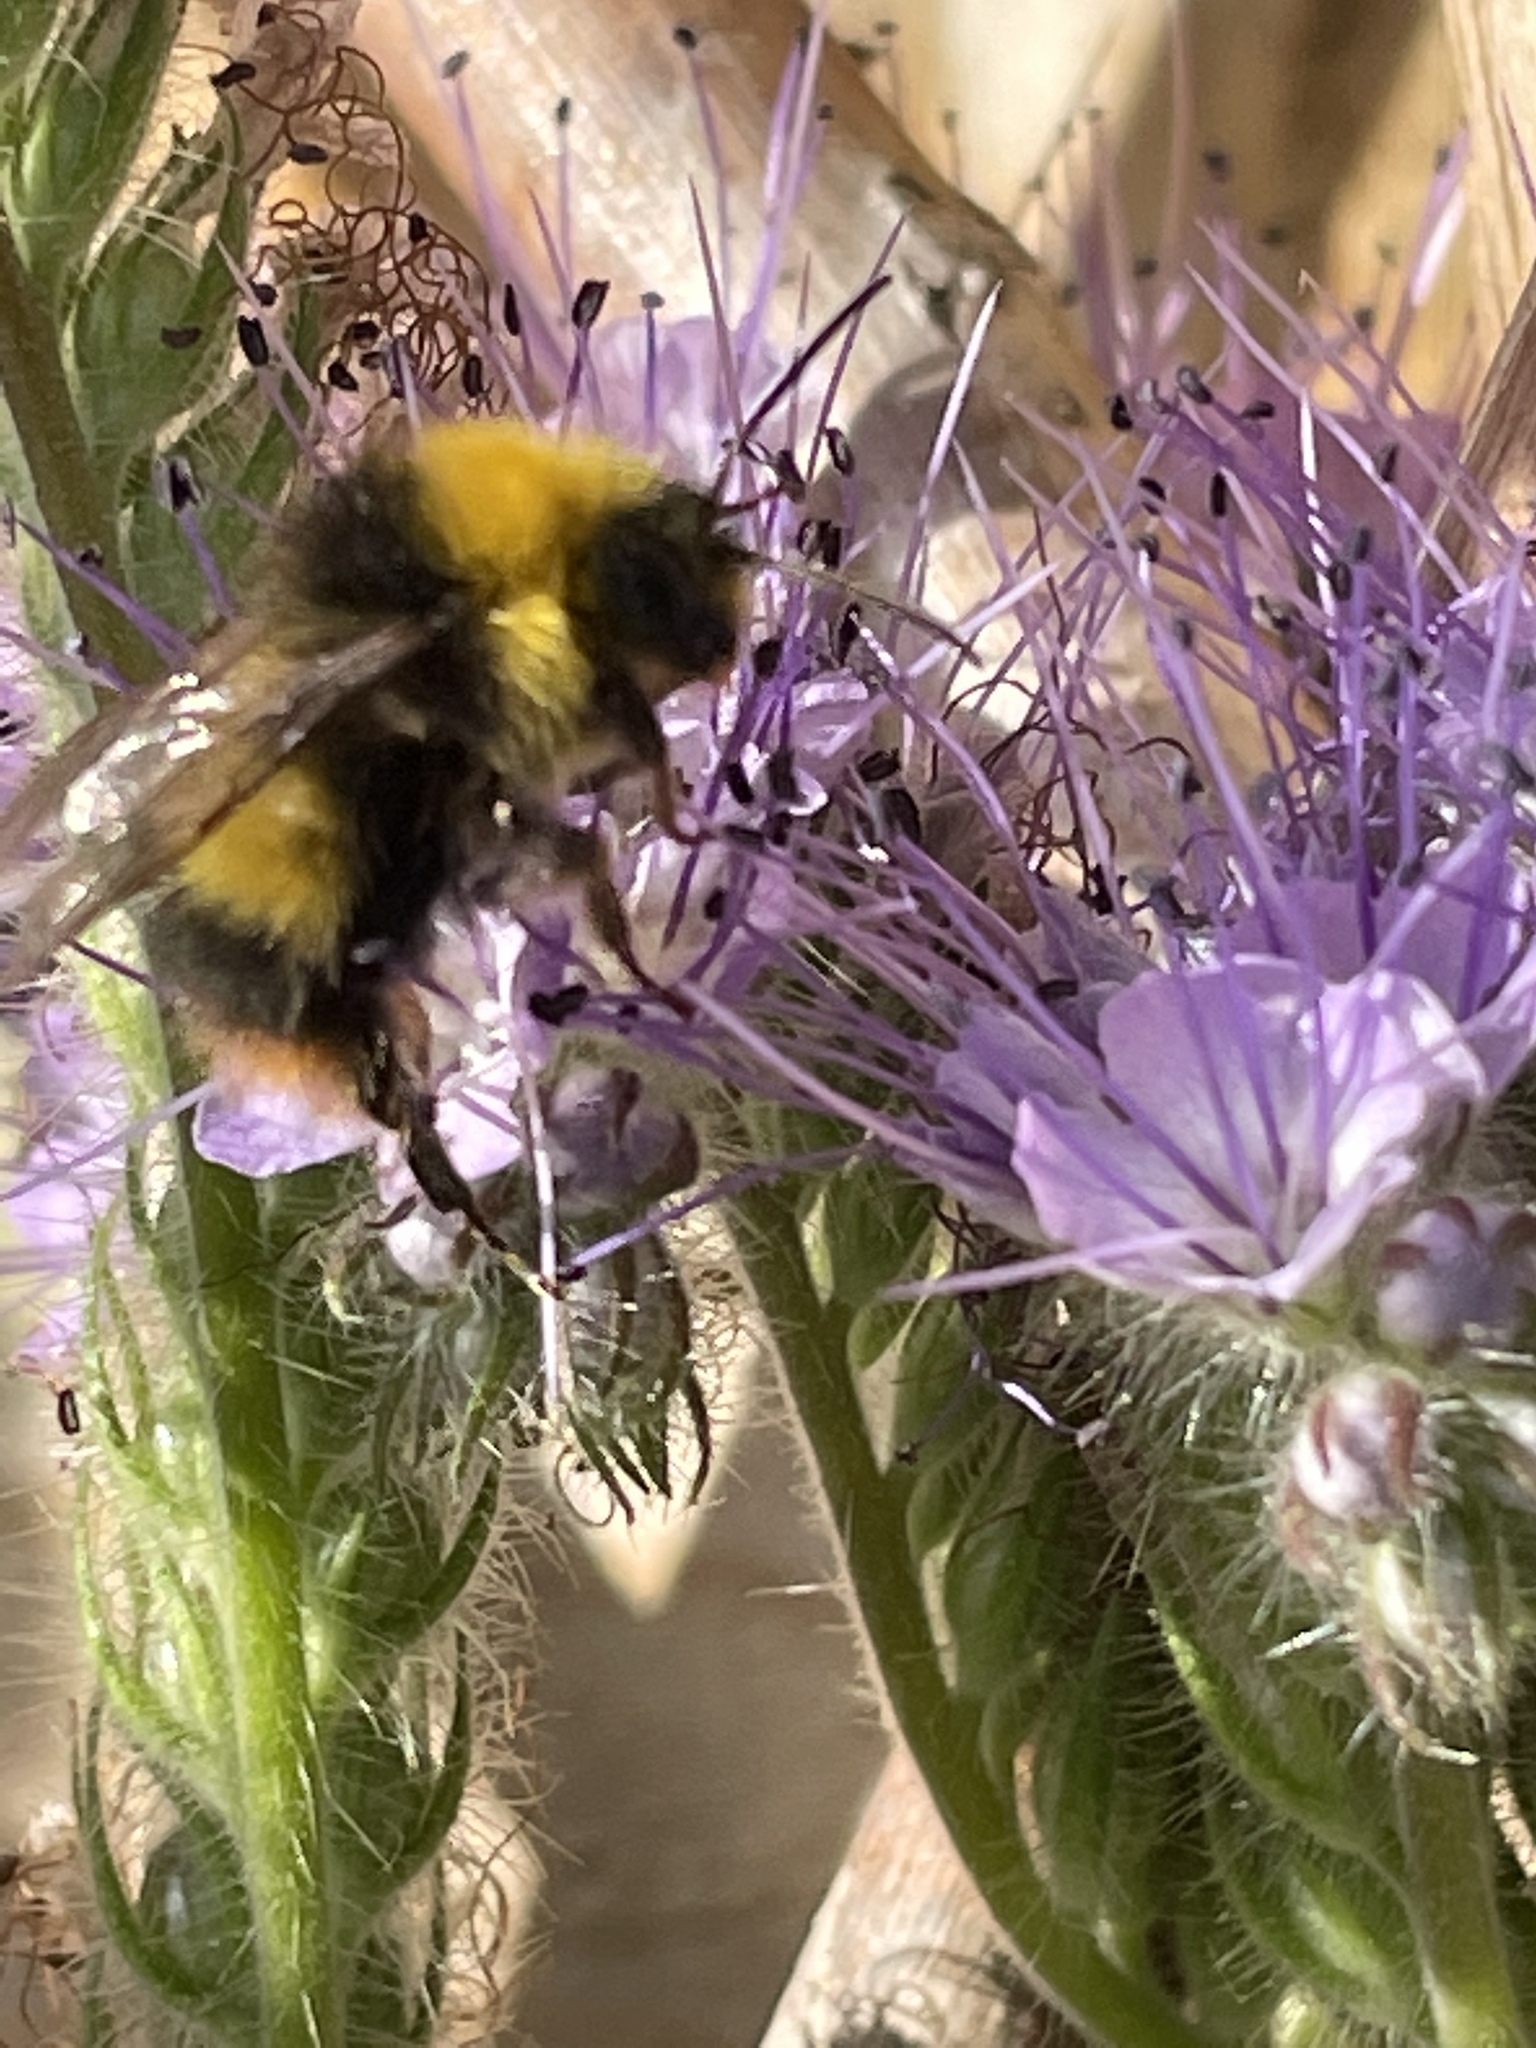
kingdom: Animalia
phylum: Arthropoda
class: Insecta
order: Hymenoptera
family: Apidae
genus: Bombus
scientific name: Bombus pratorum
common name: Early humble-bee
